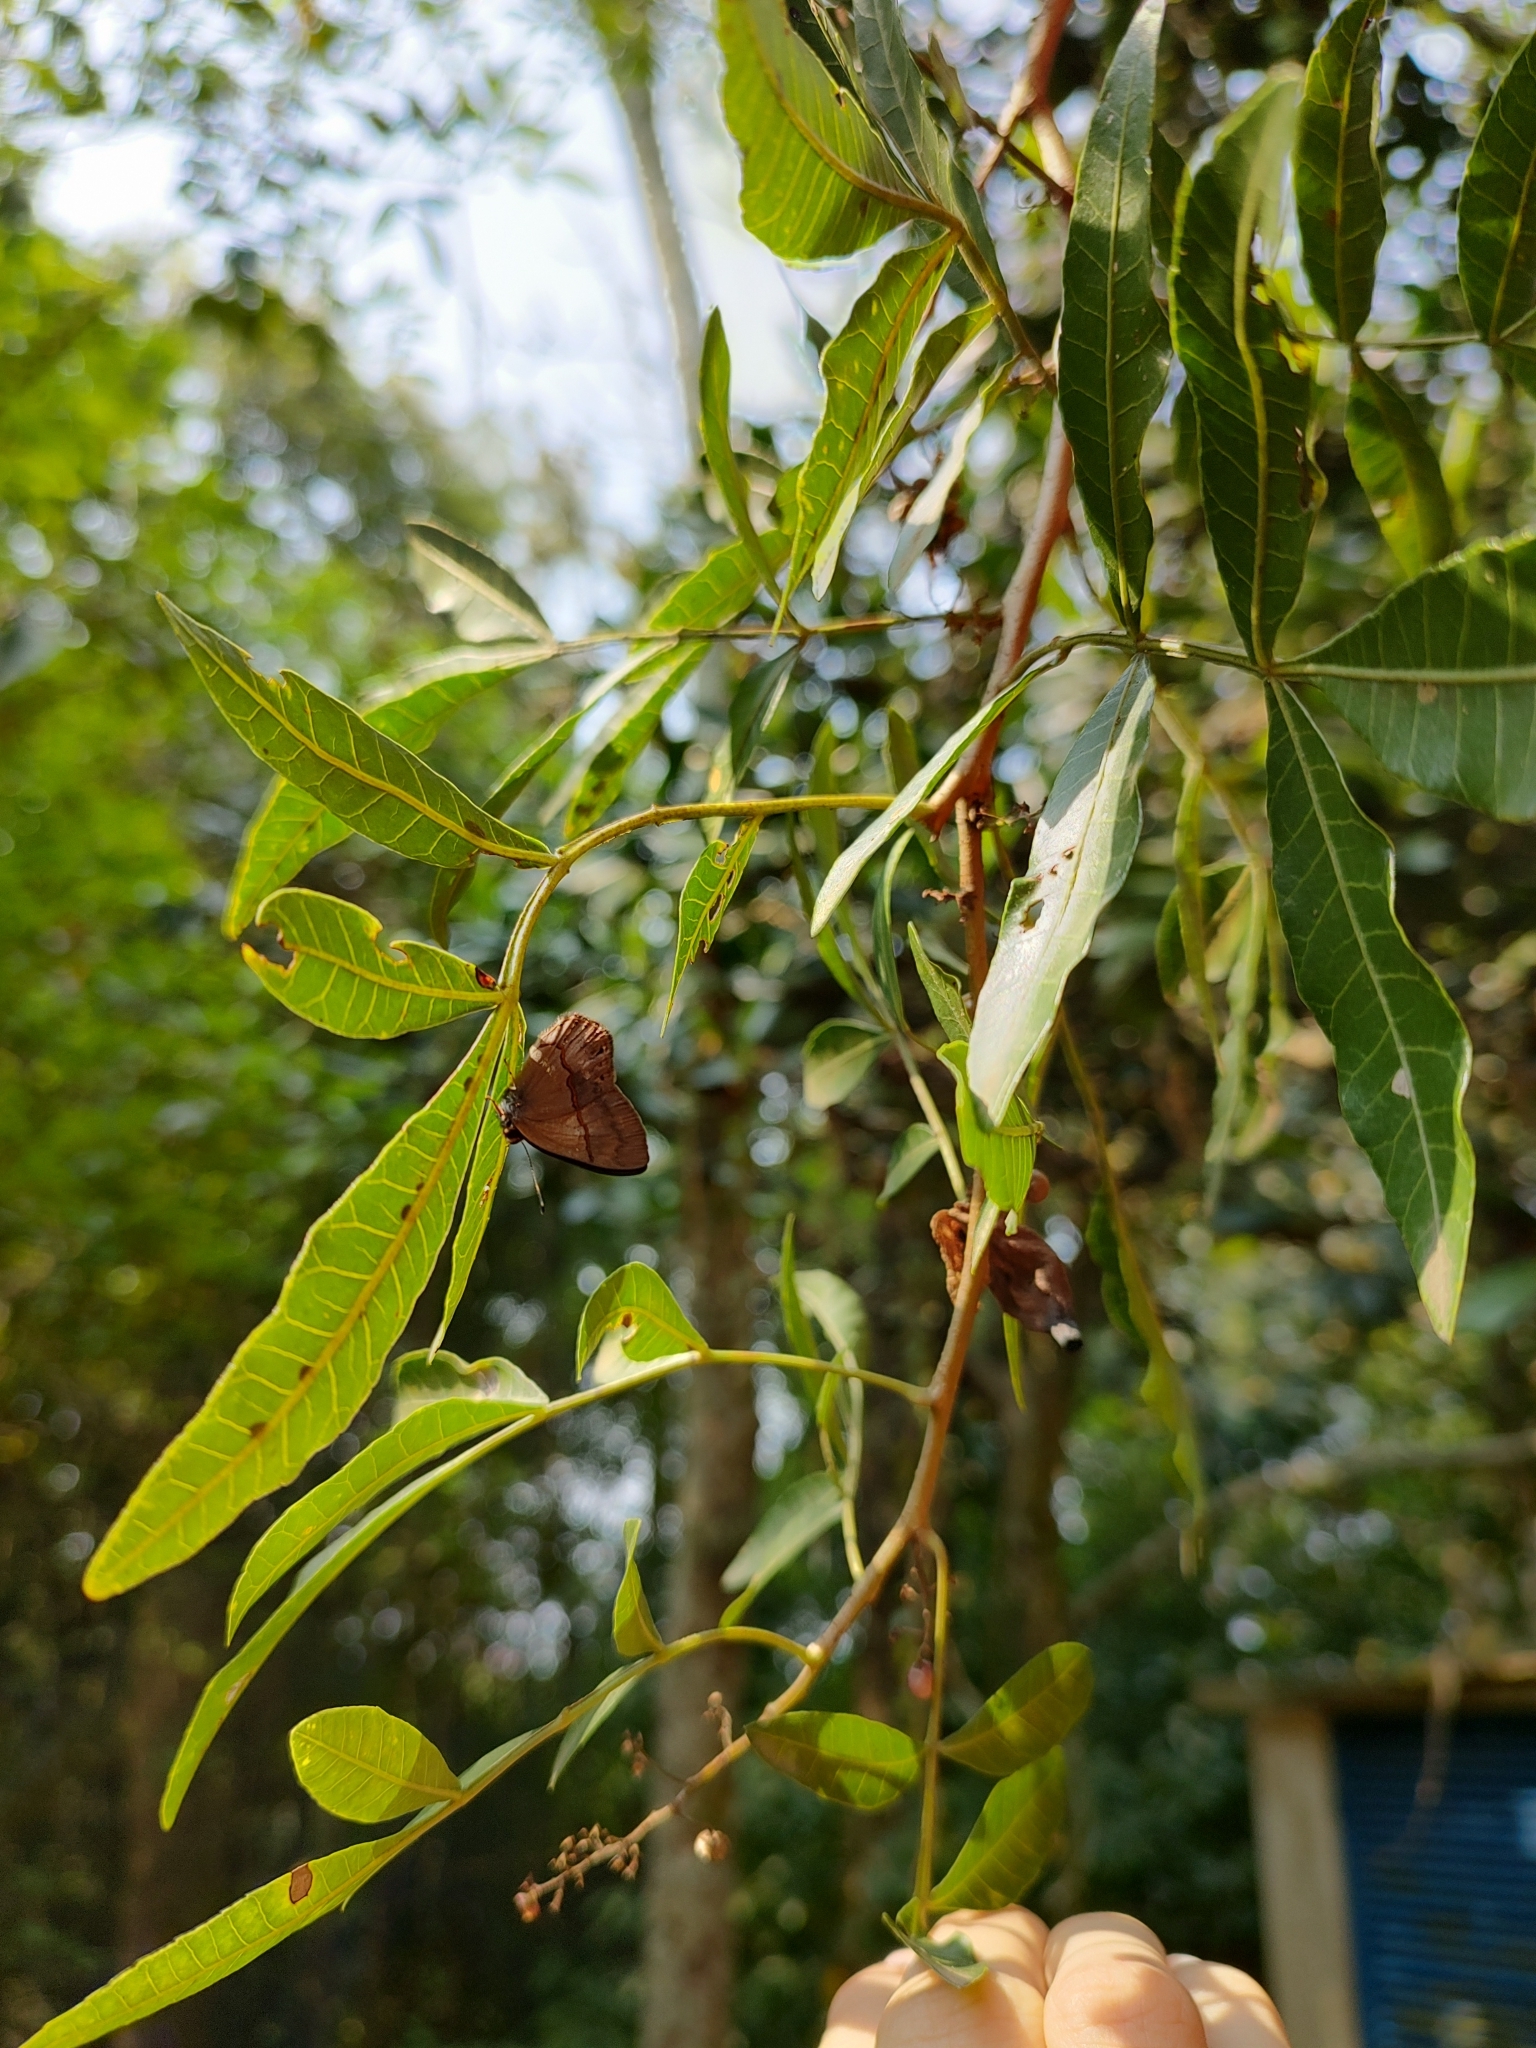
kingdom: Animalia
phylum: Arthropoda
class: Insecta
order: Lepidoptera
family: Riodinidae
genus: Myselasia
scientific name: Myselasia
